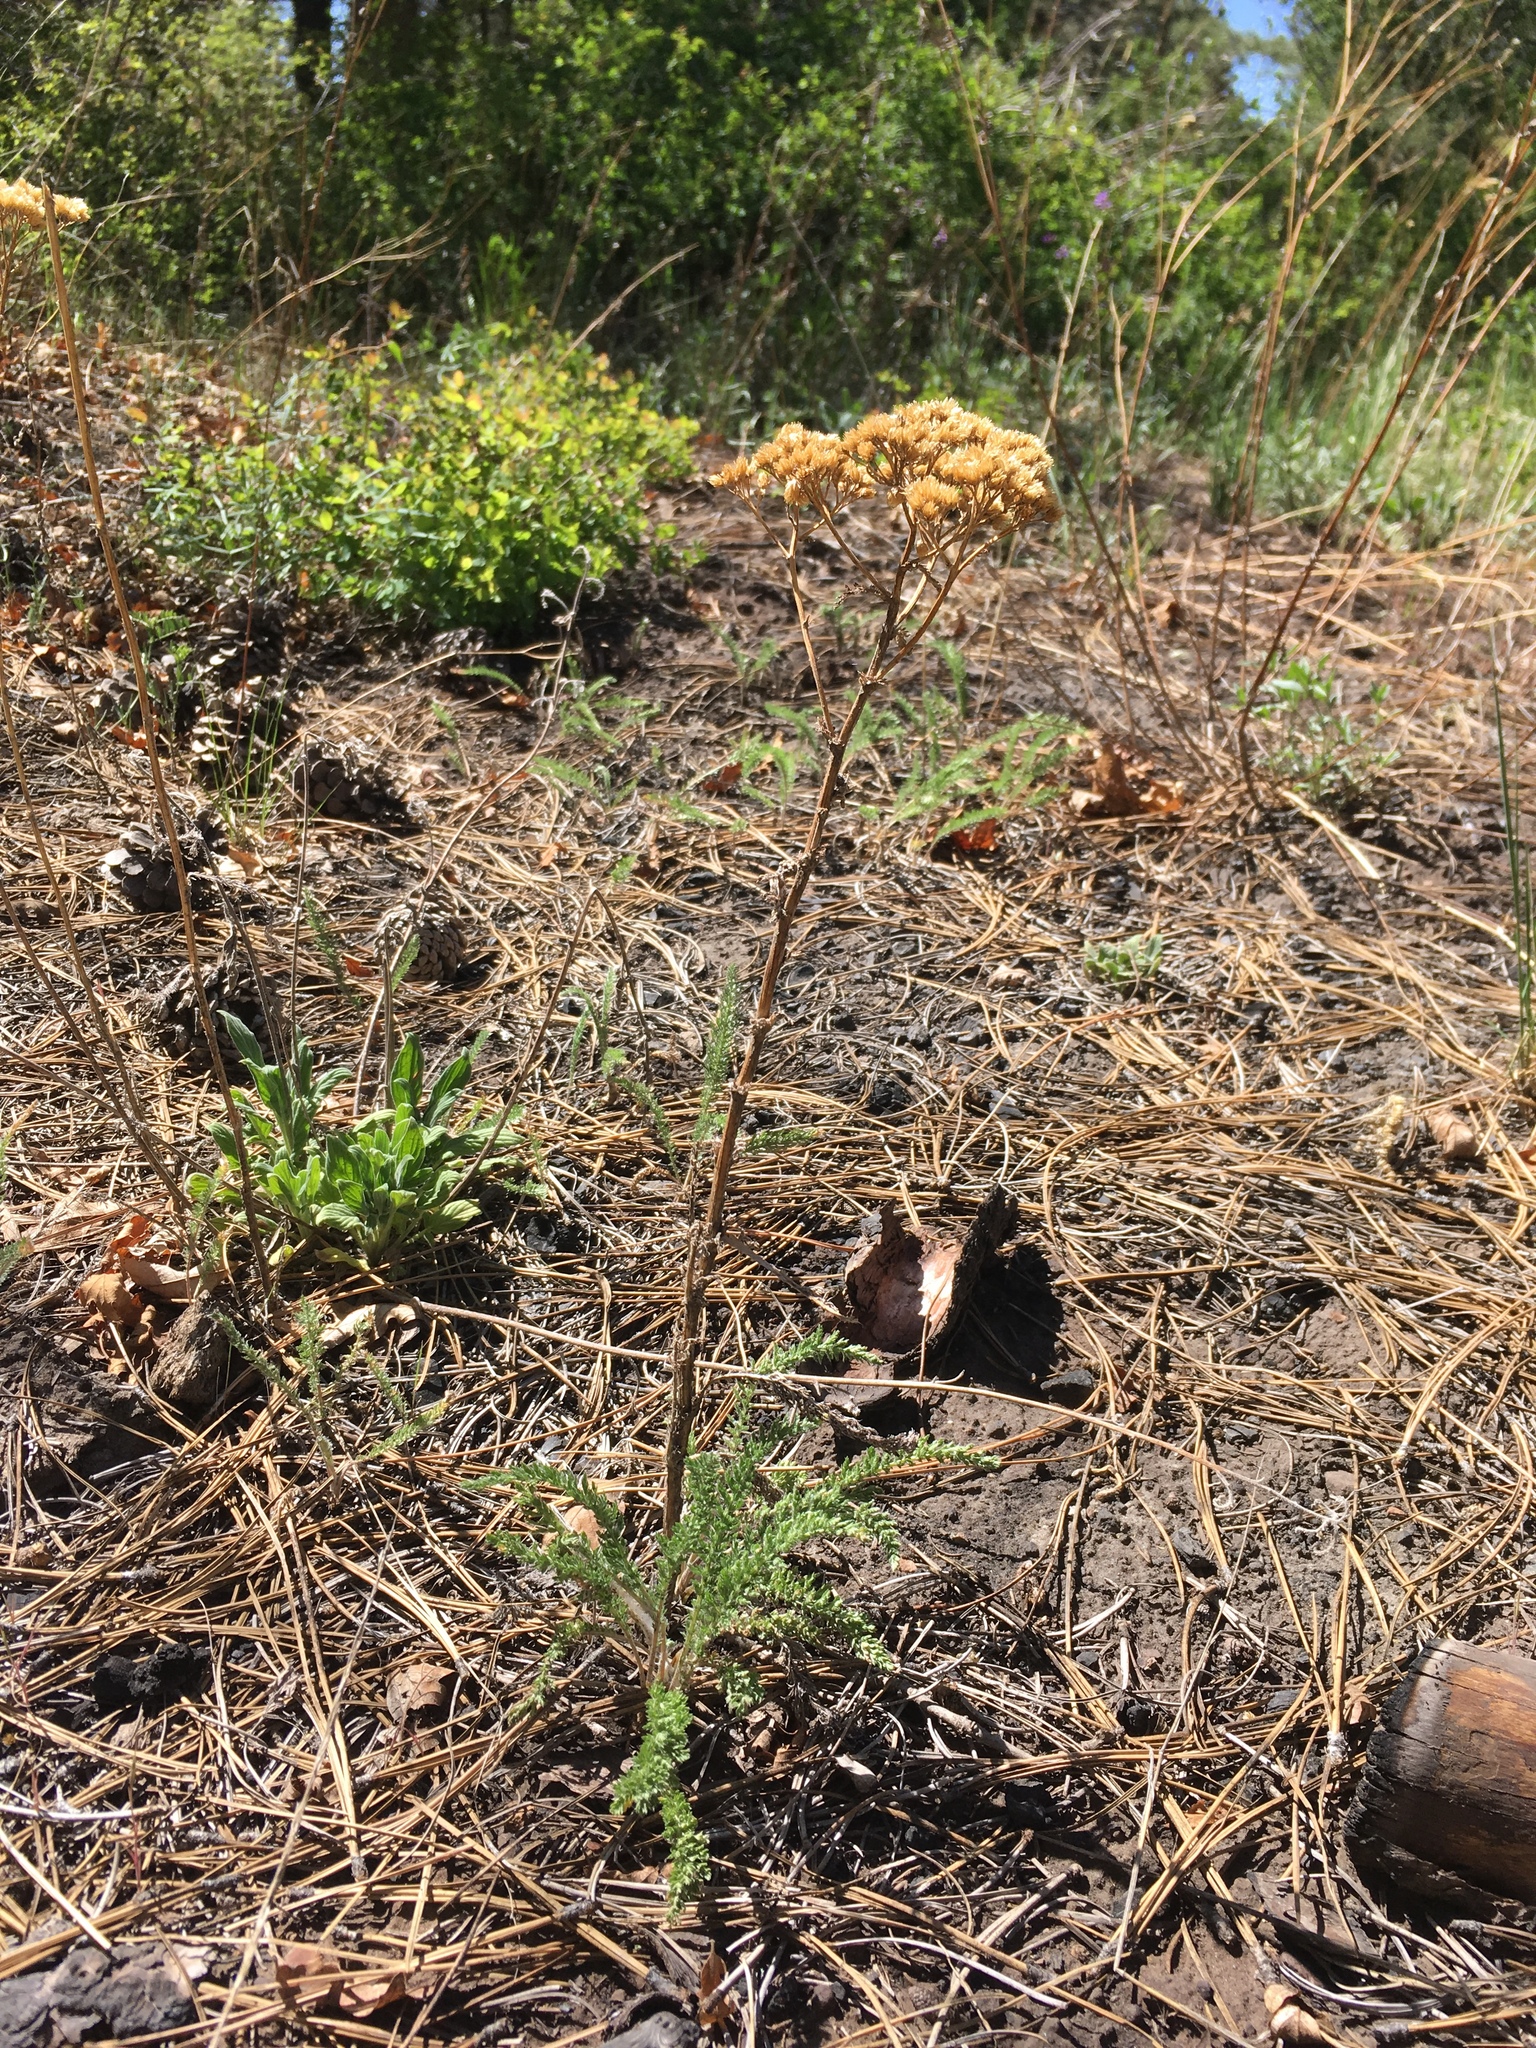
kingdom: Plantae
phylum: Tracheophyta
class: Magnoliopsida
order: Asterales
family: Asteraceae
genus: Achillea
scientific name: Achillea millefolium
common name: Yarrow
